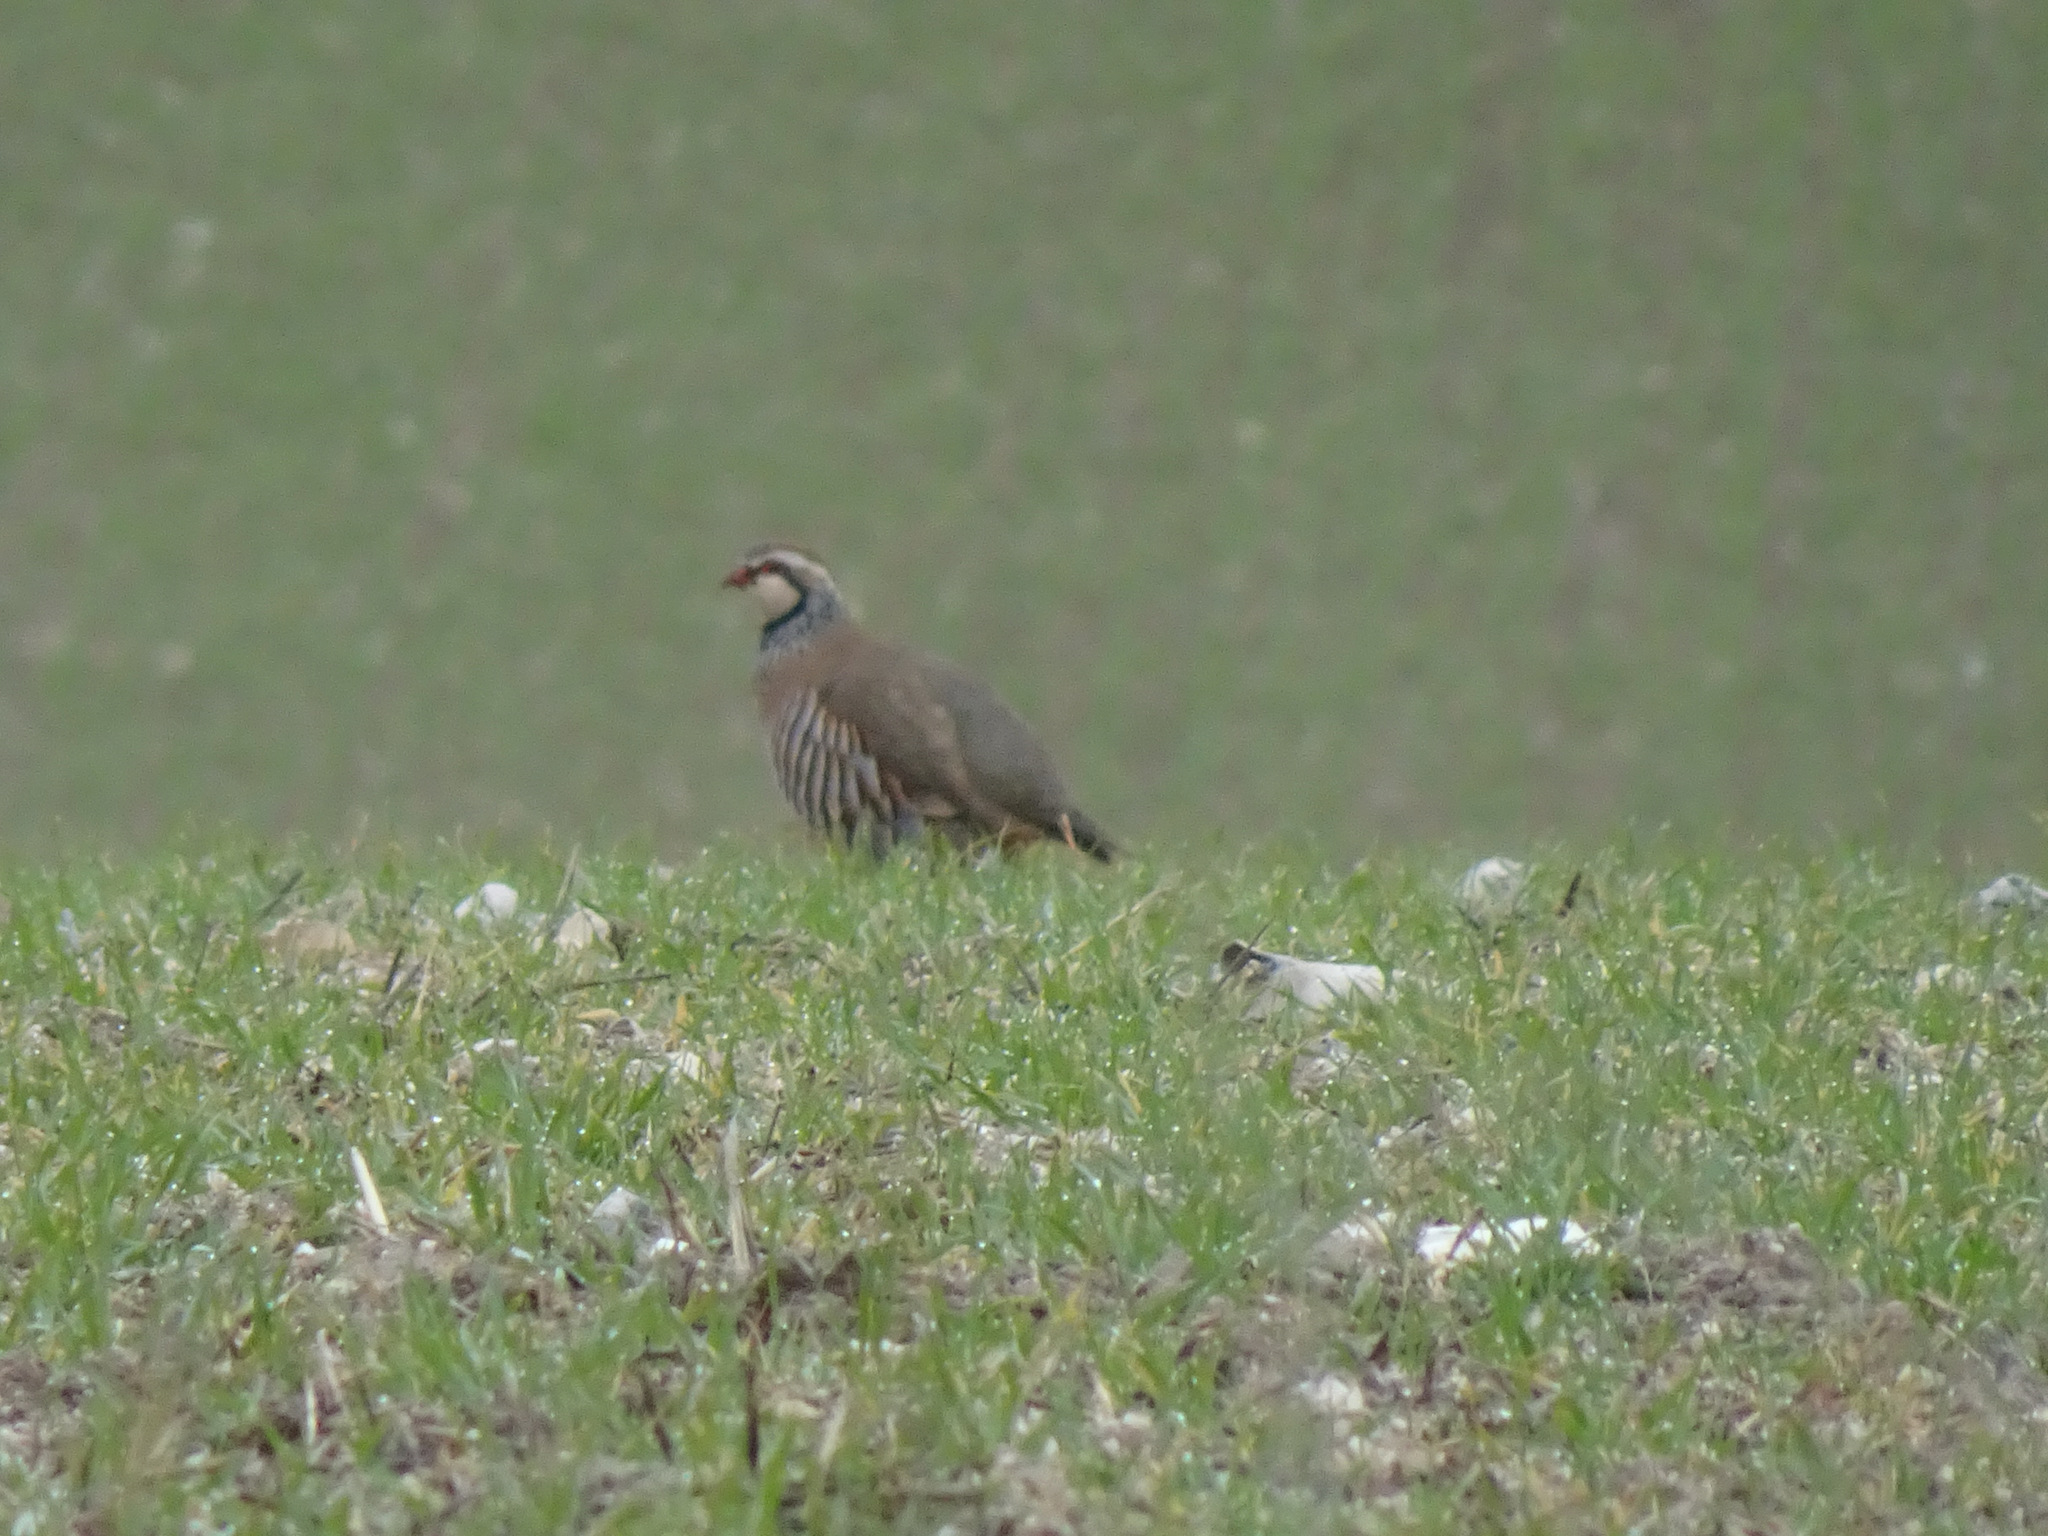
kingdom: Animalia
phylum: Chordata
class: Aves
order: Galliformes
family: Phasianidae
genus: Alectoris
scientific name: Alectoris rufa
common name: Red-legged partridge
